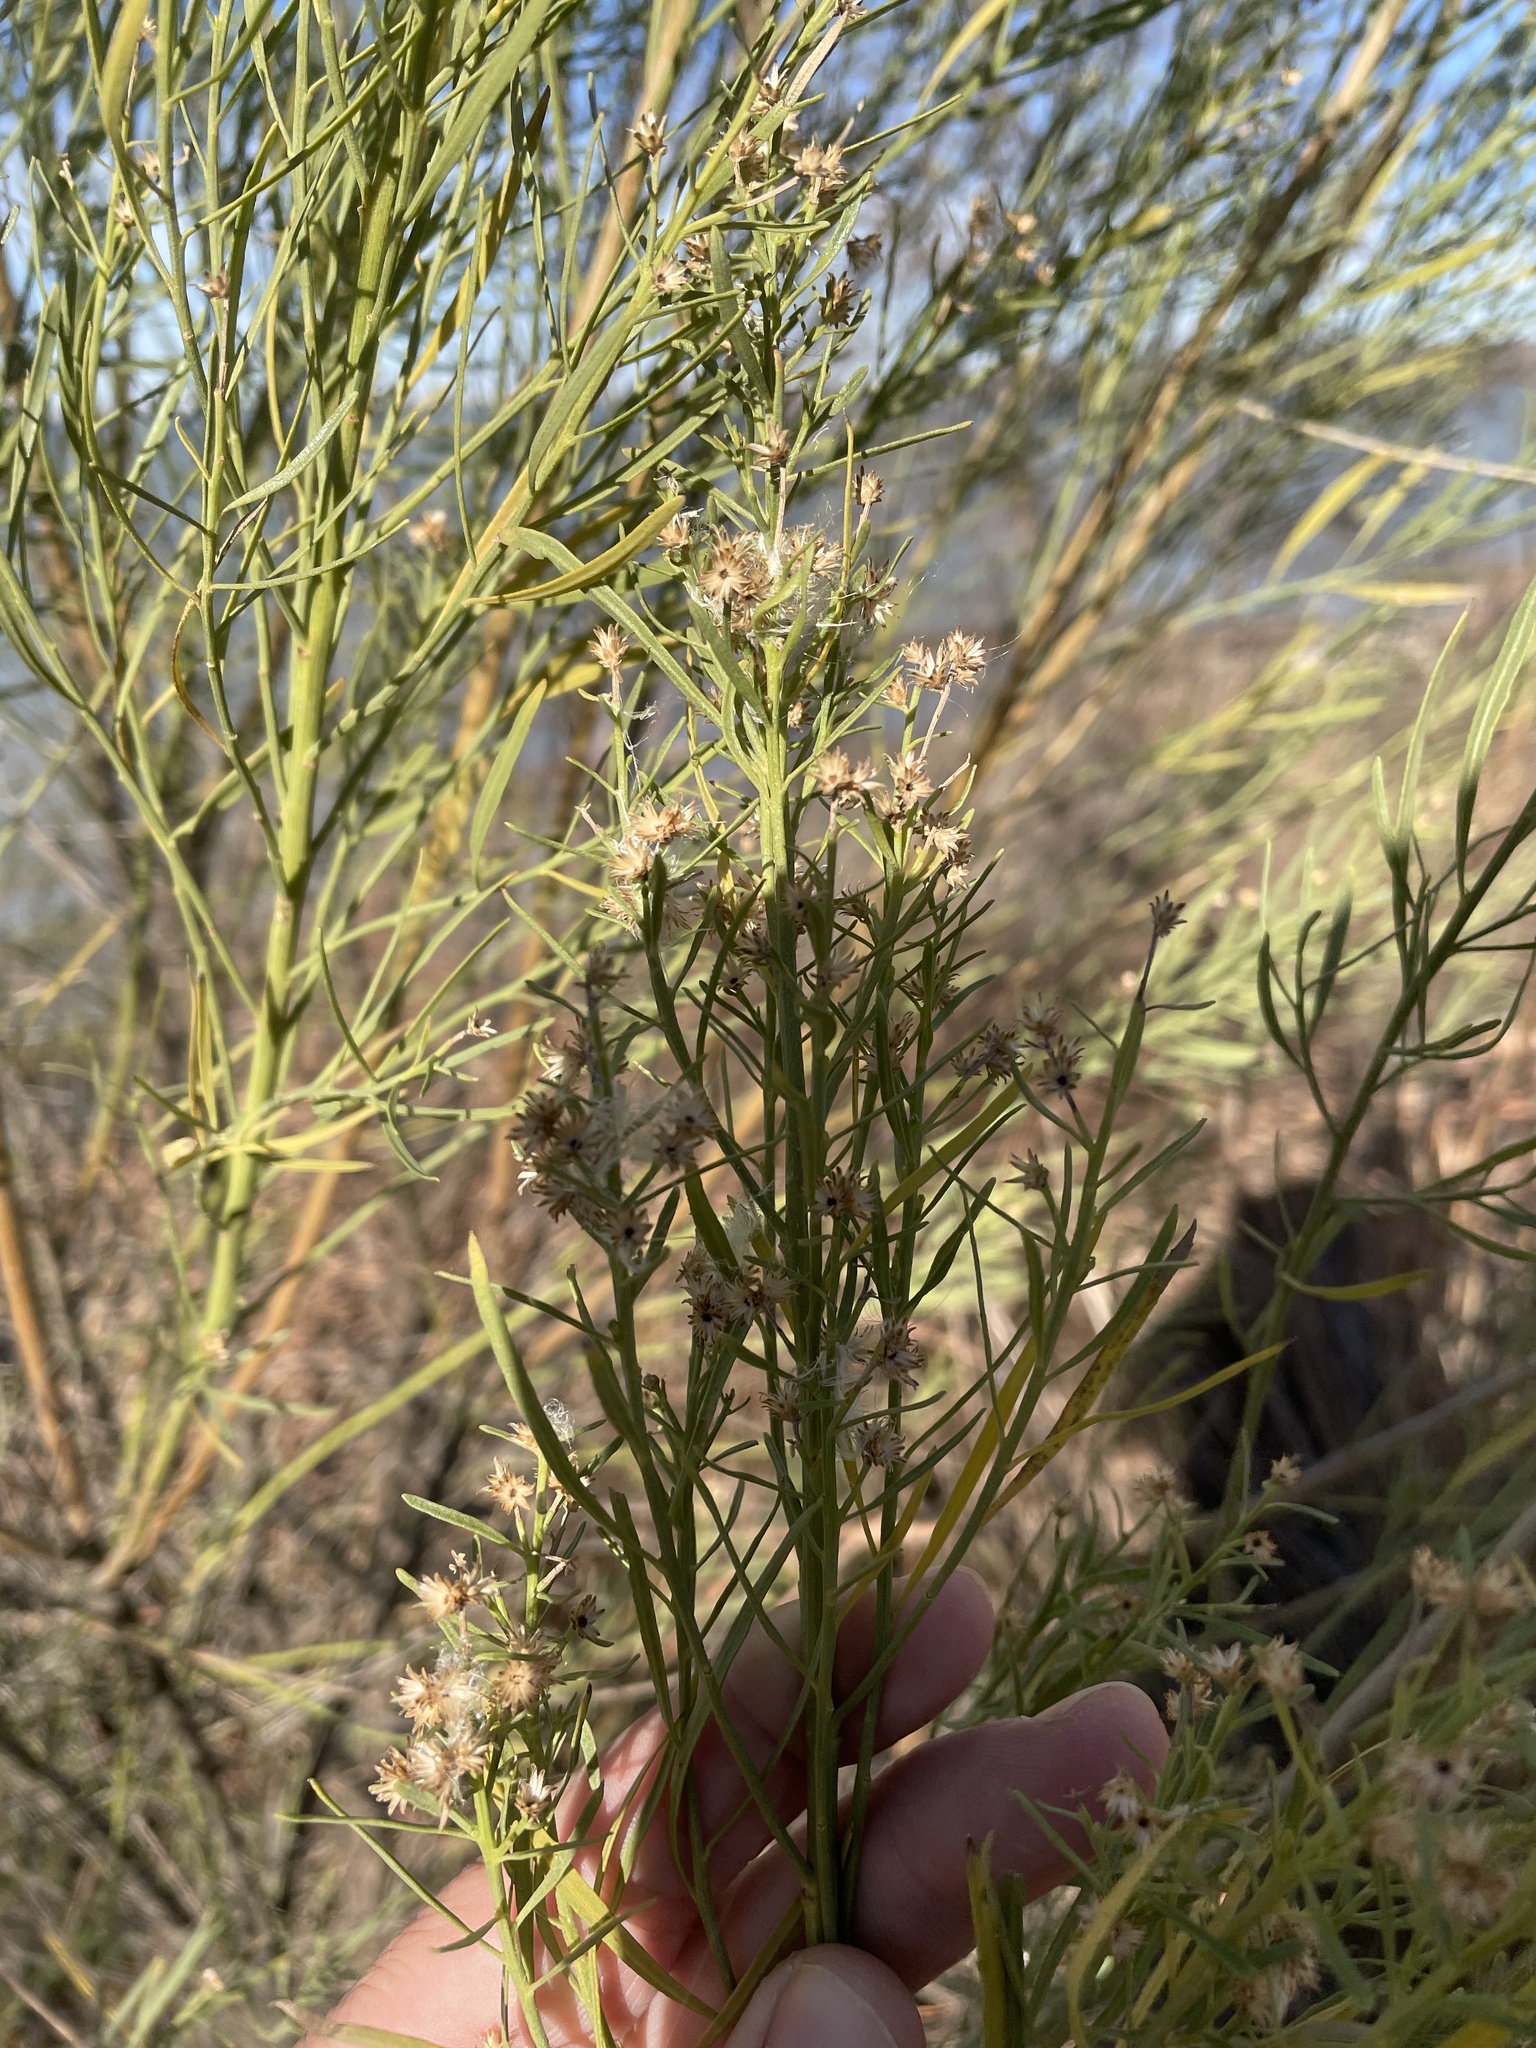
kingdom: Plantae
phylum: Tracheophyta
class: Magnoliopsida
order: Asterales
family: Asteraceae
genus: Baccharis
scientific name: Baccharis neglecta
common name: Roosevelt-weed
